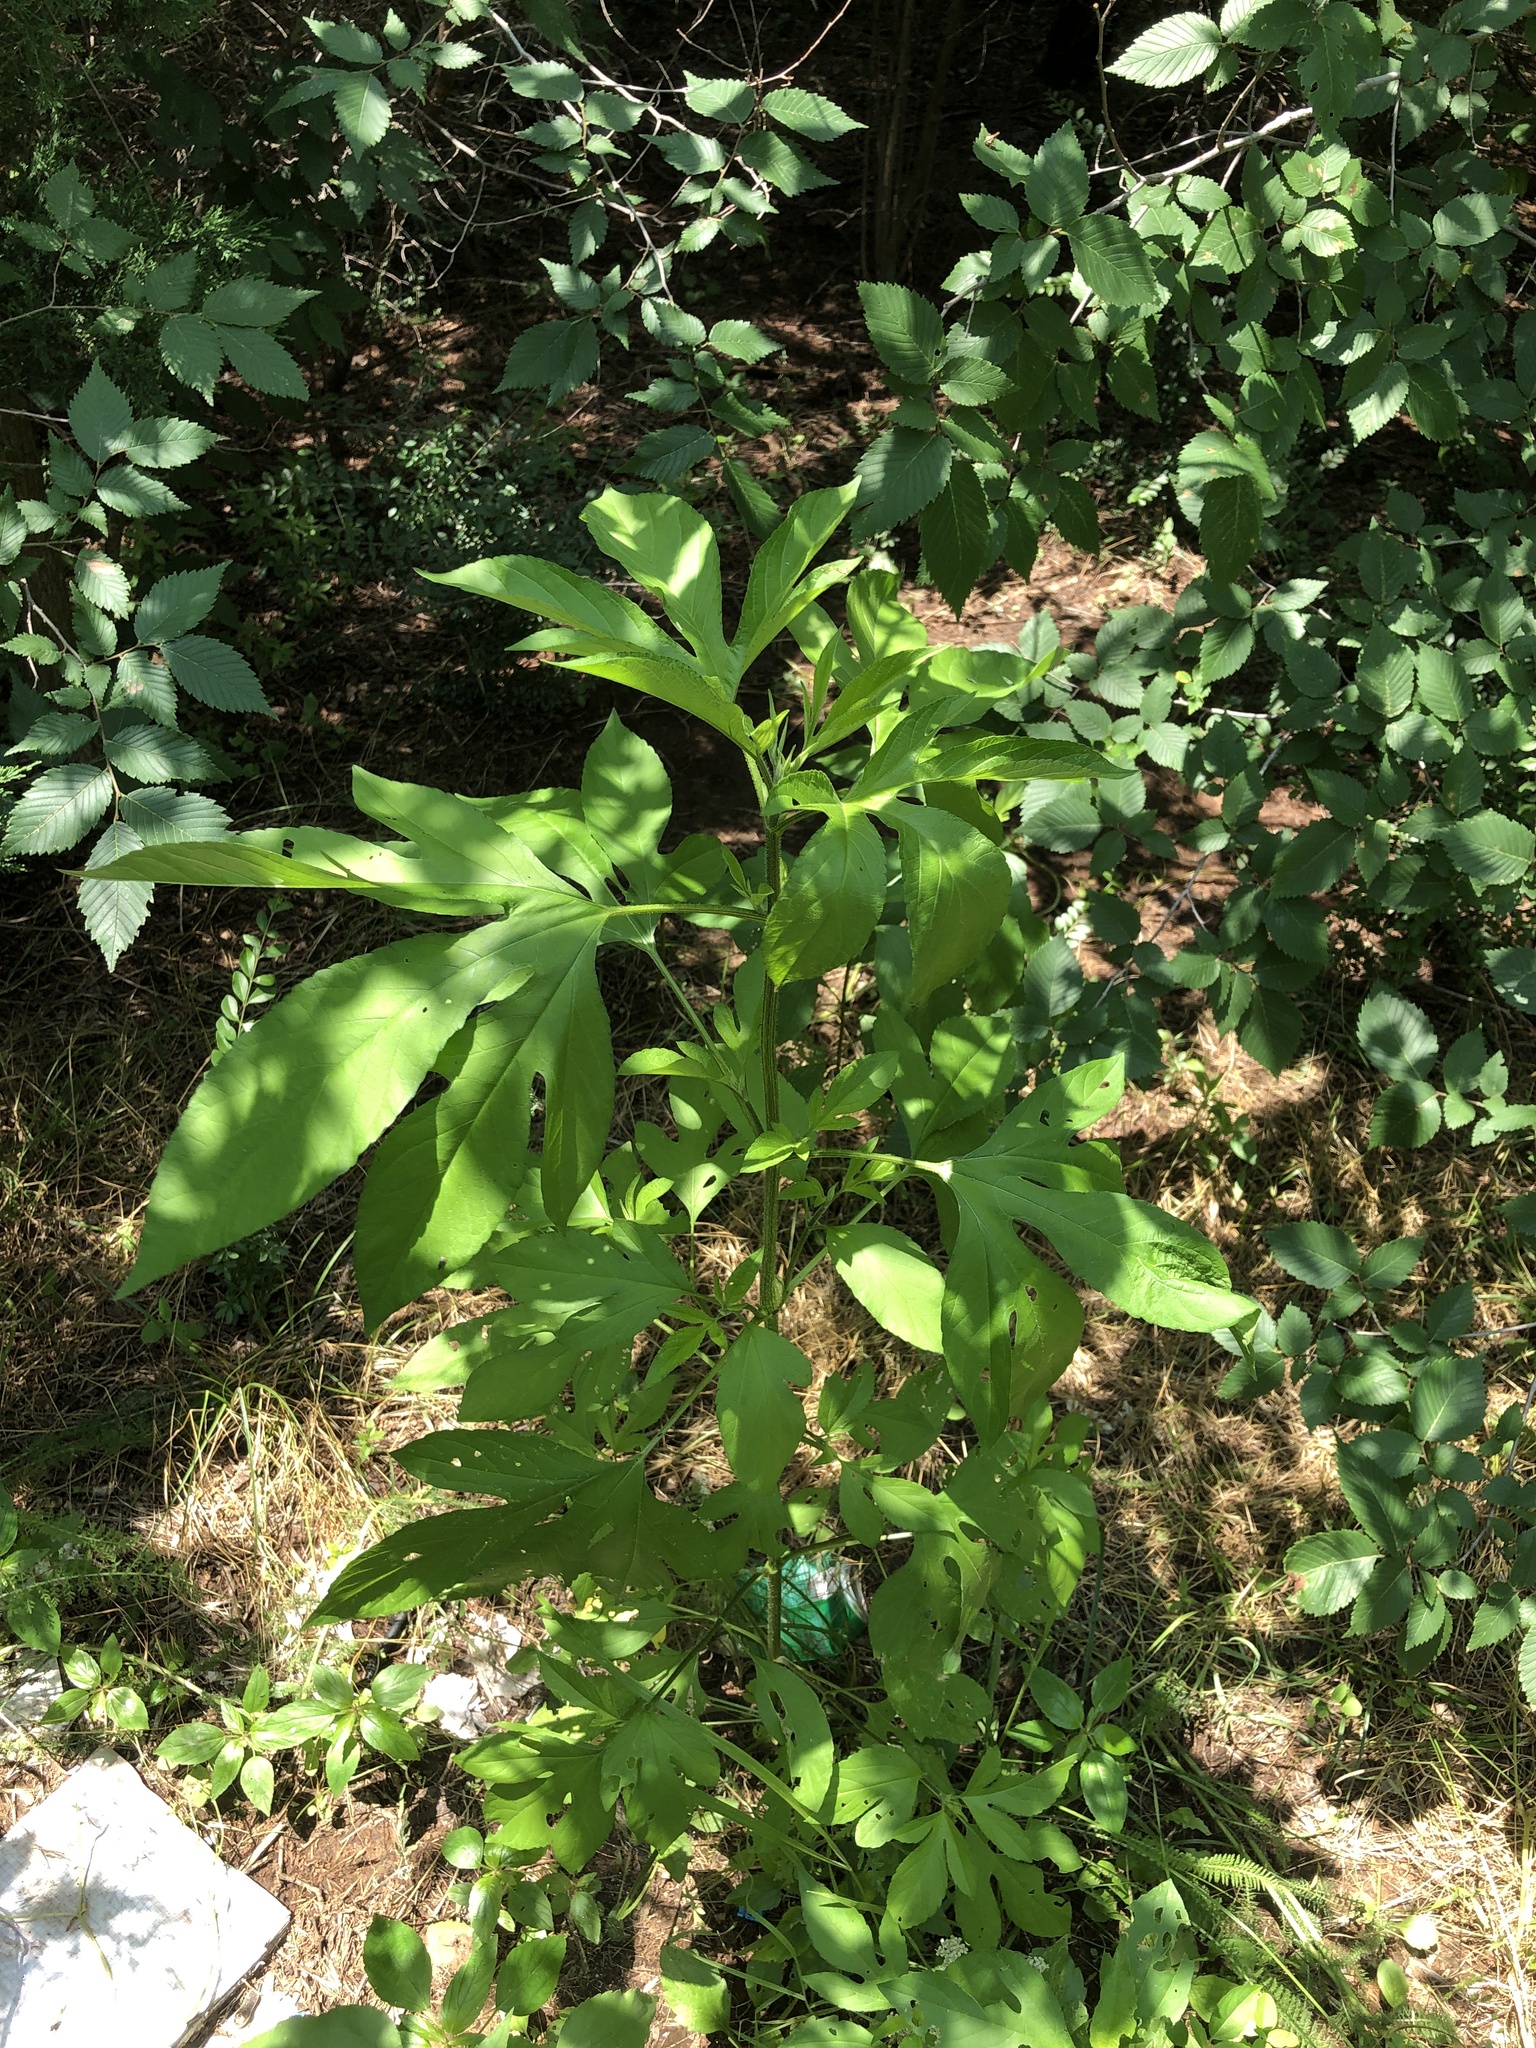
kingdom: Plantae
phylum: Tracheophyta
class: Magnoliopsida
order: Asterales
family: Asteraceae
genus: Ambrosia
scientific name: Ambrosia trifida
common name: Giant ragweed
